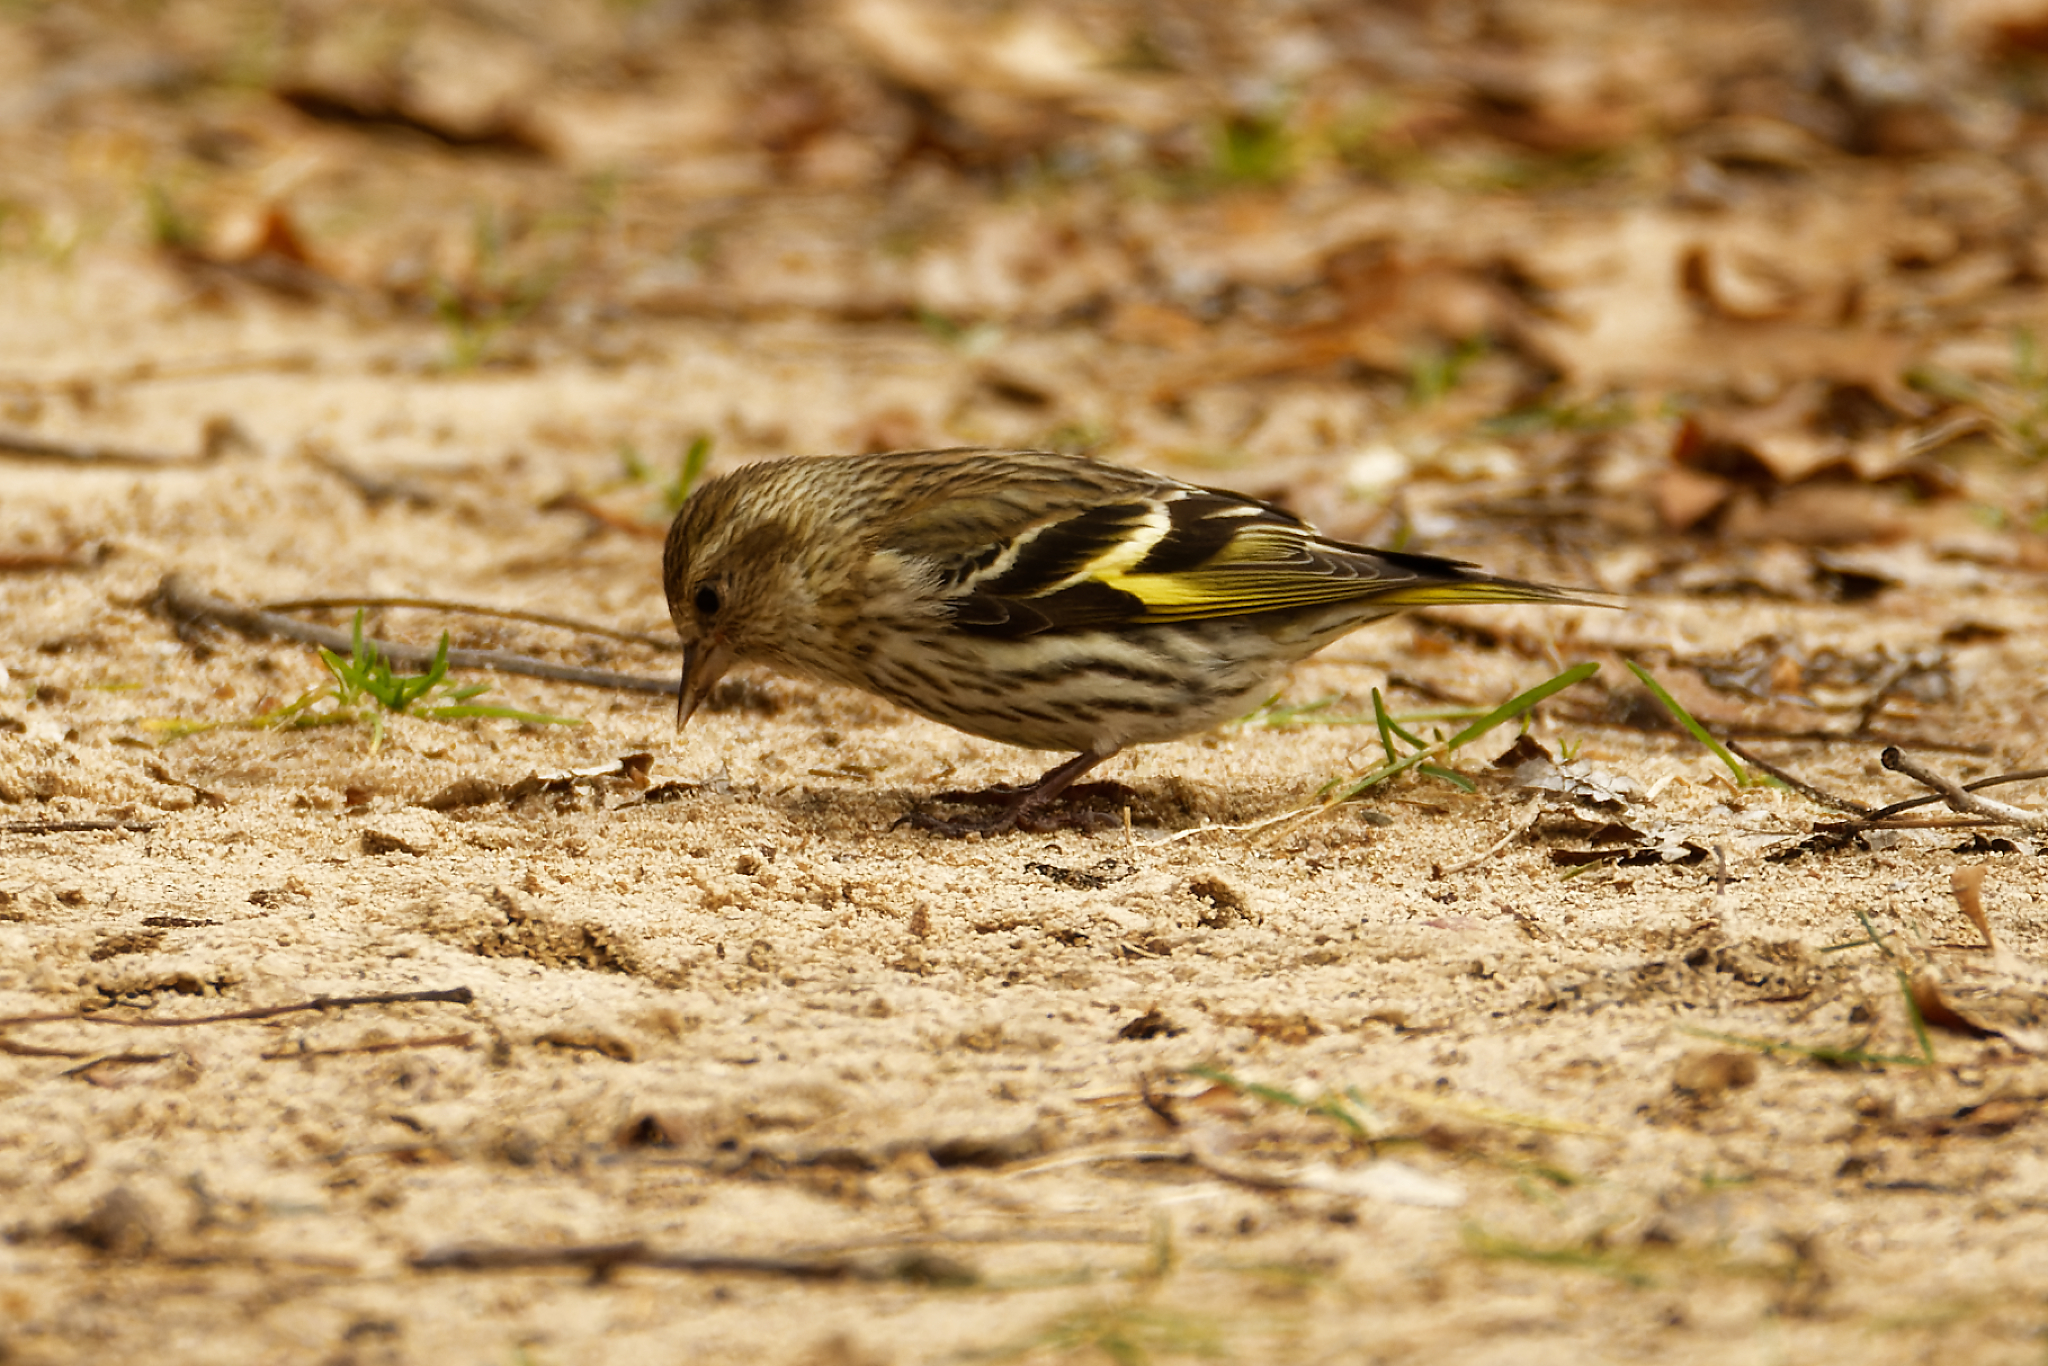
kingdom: Animalia
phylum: Chordata
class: Aves
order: Passeriformes
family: Fringillidae
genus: Spinus
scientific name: Spinus pinus
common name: Pine siskin
